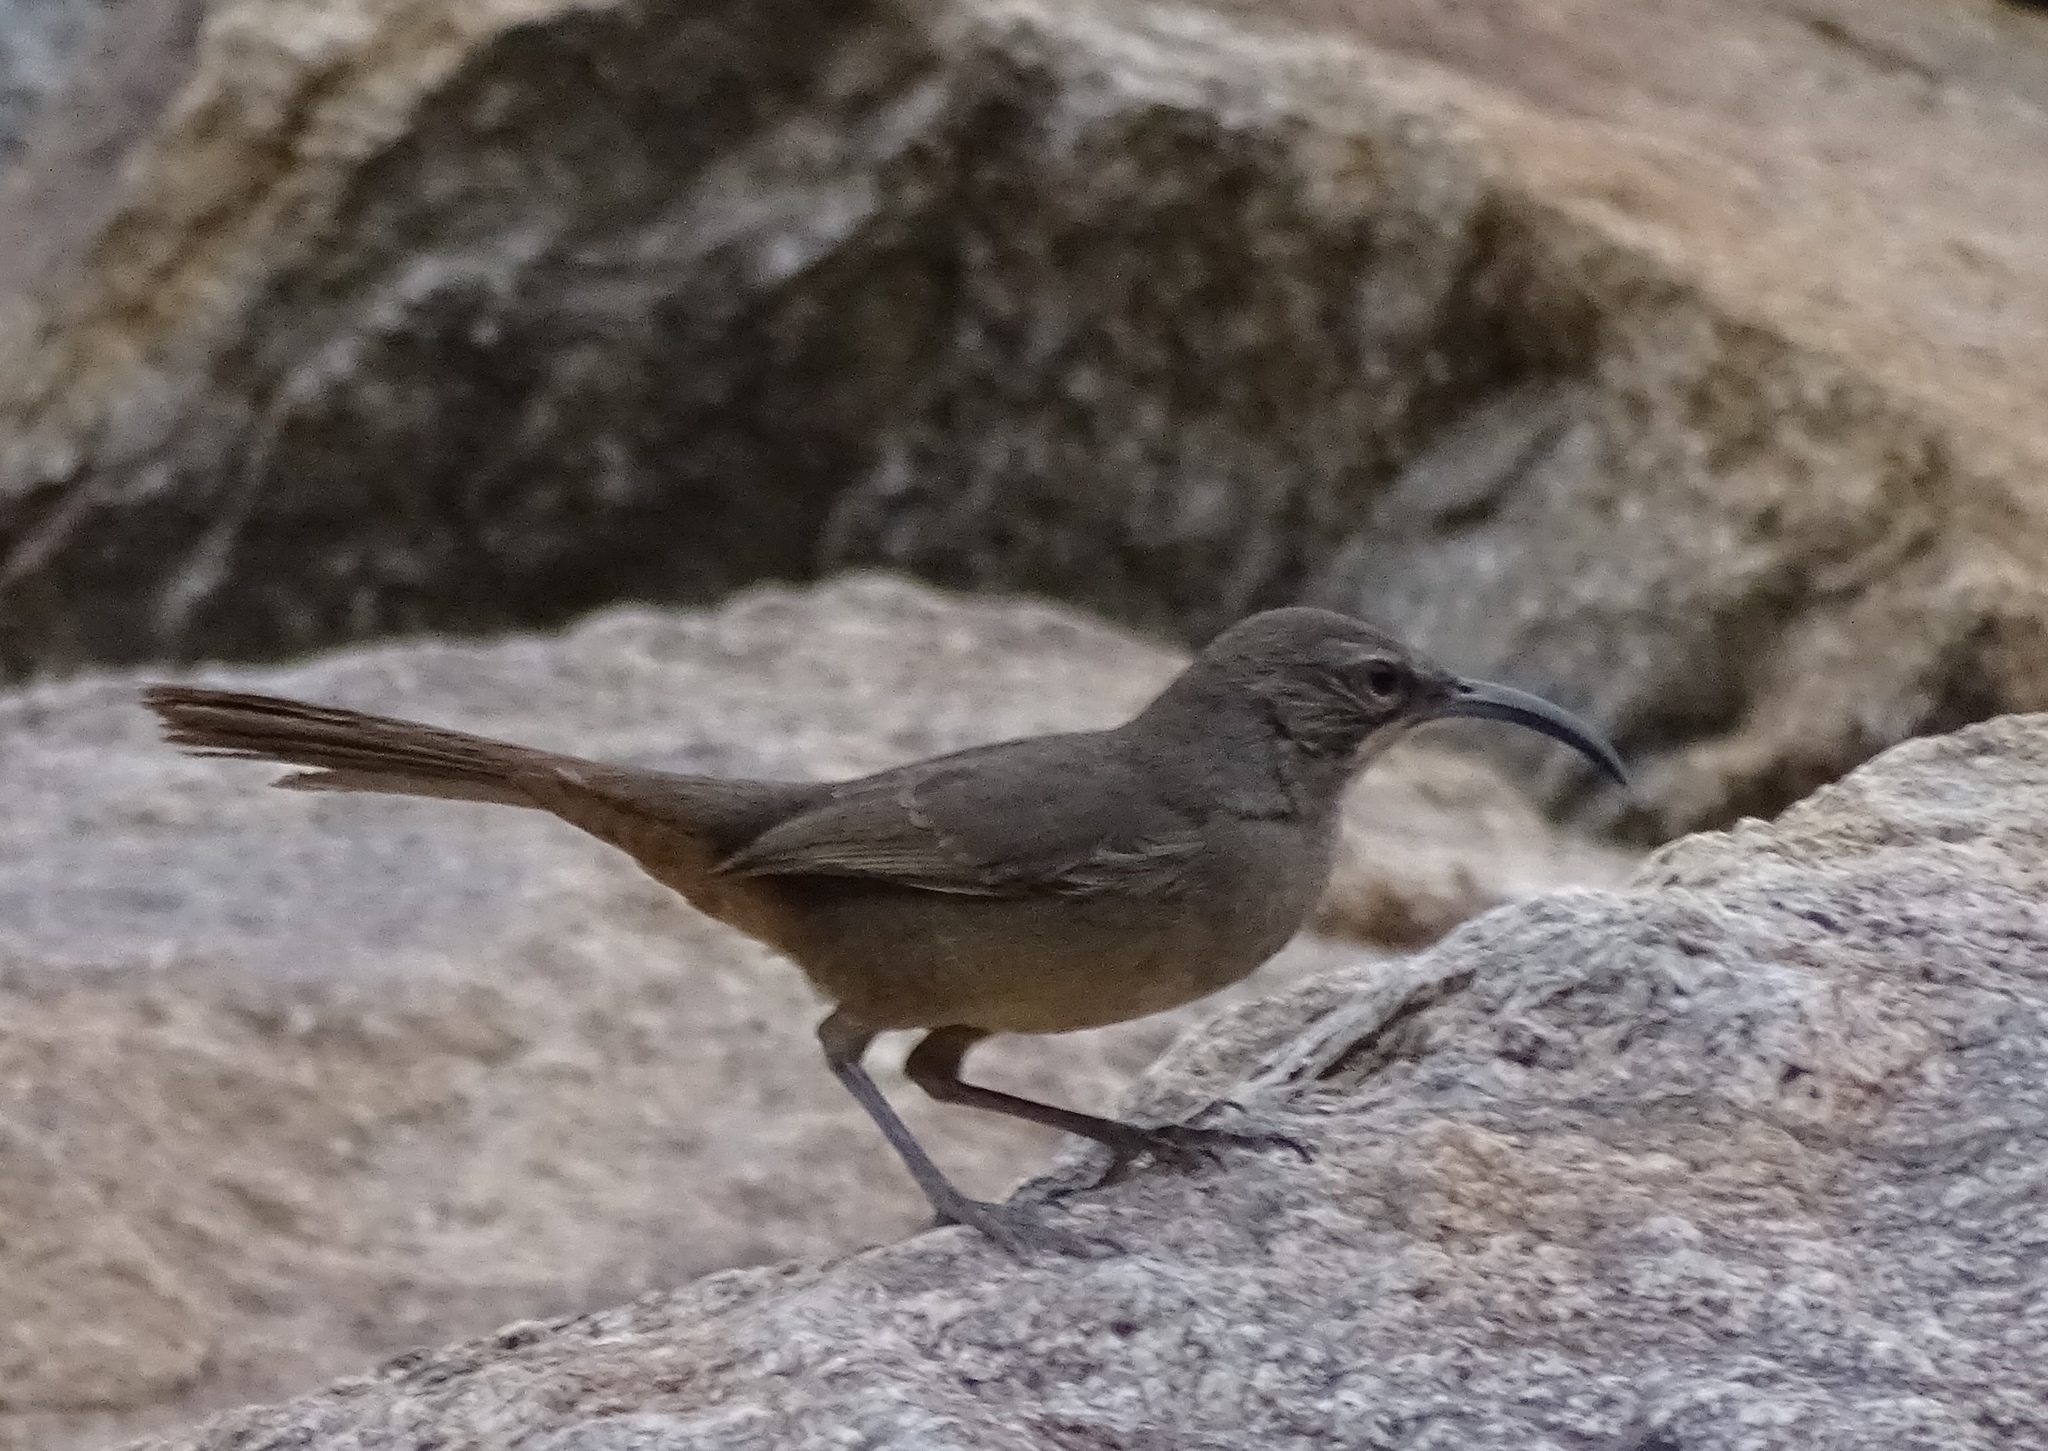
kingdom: Animalia
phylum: Chordata
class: Aves
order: Passeriformes
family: Mimidae
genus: Toxostoma
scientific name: Toxostoma redivivum
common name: California thrasher
